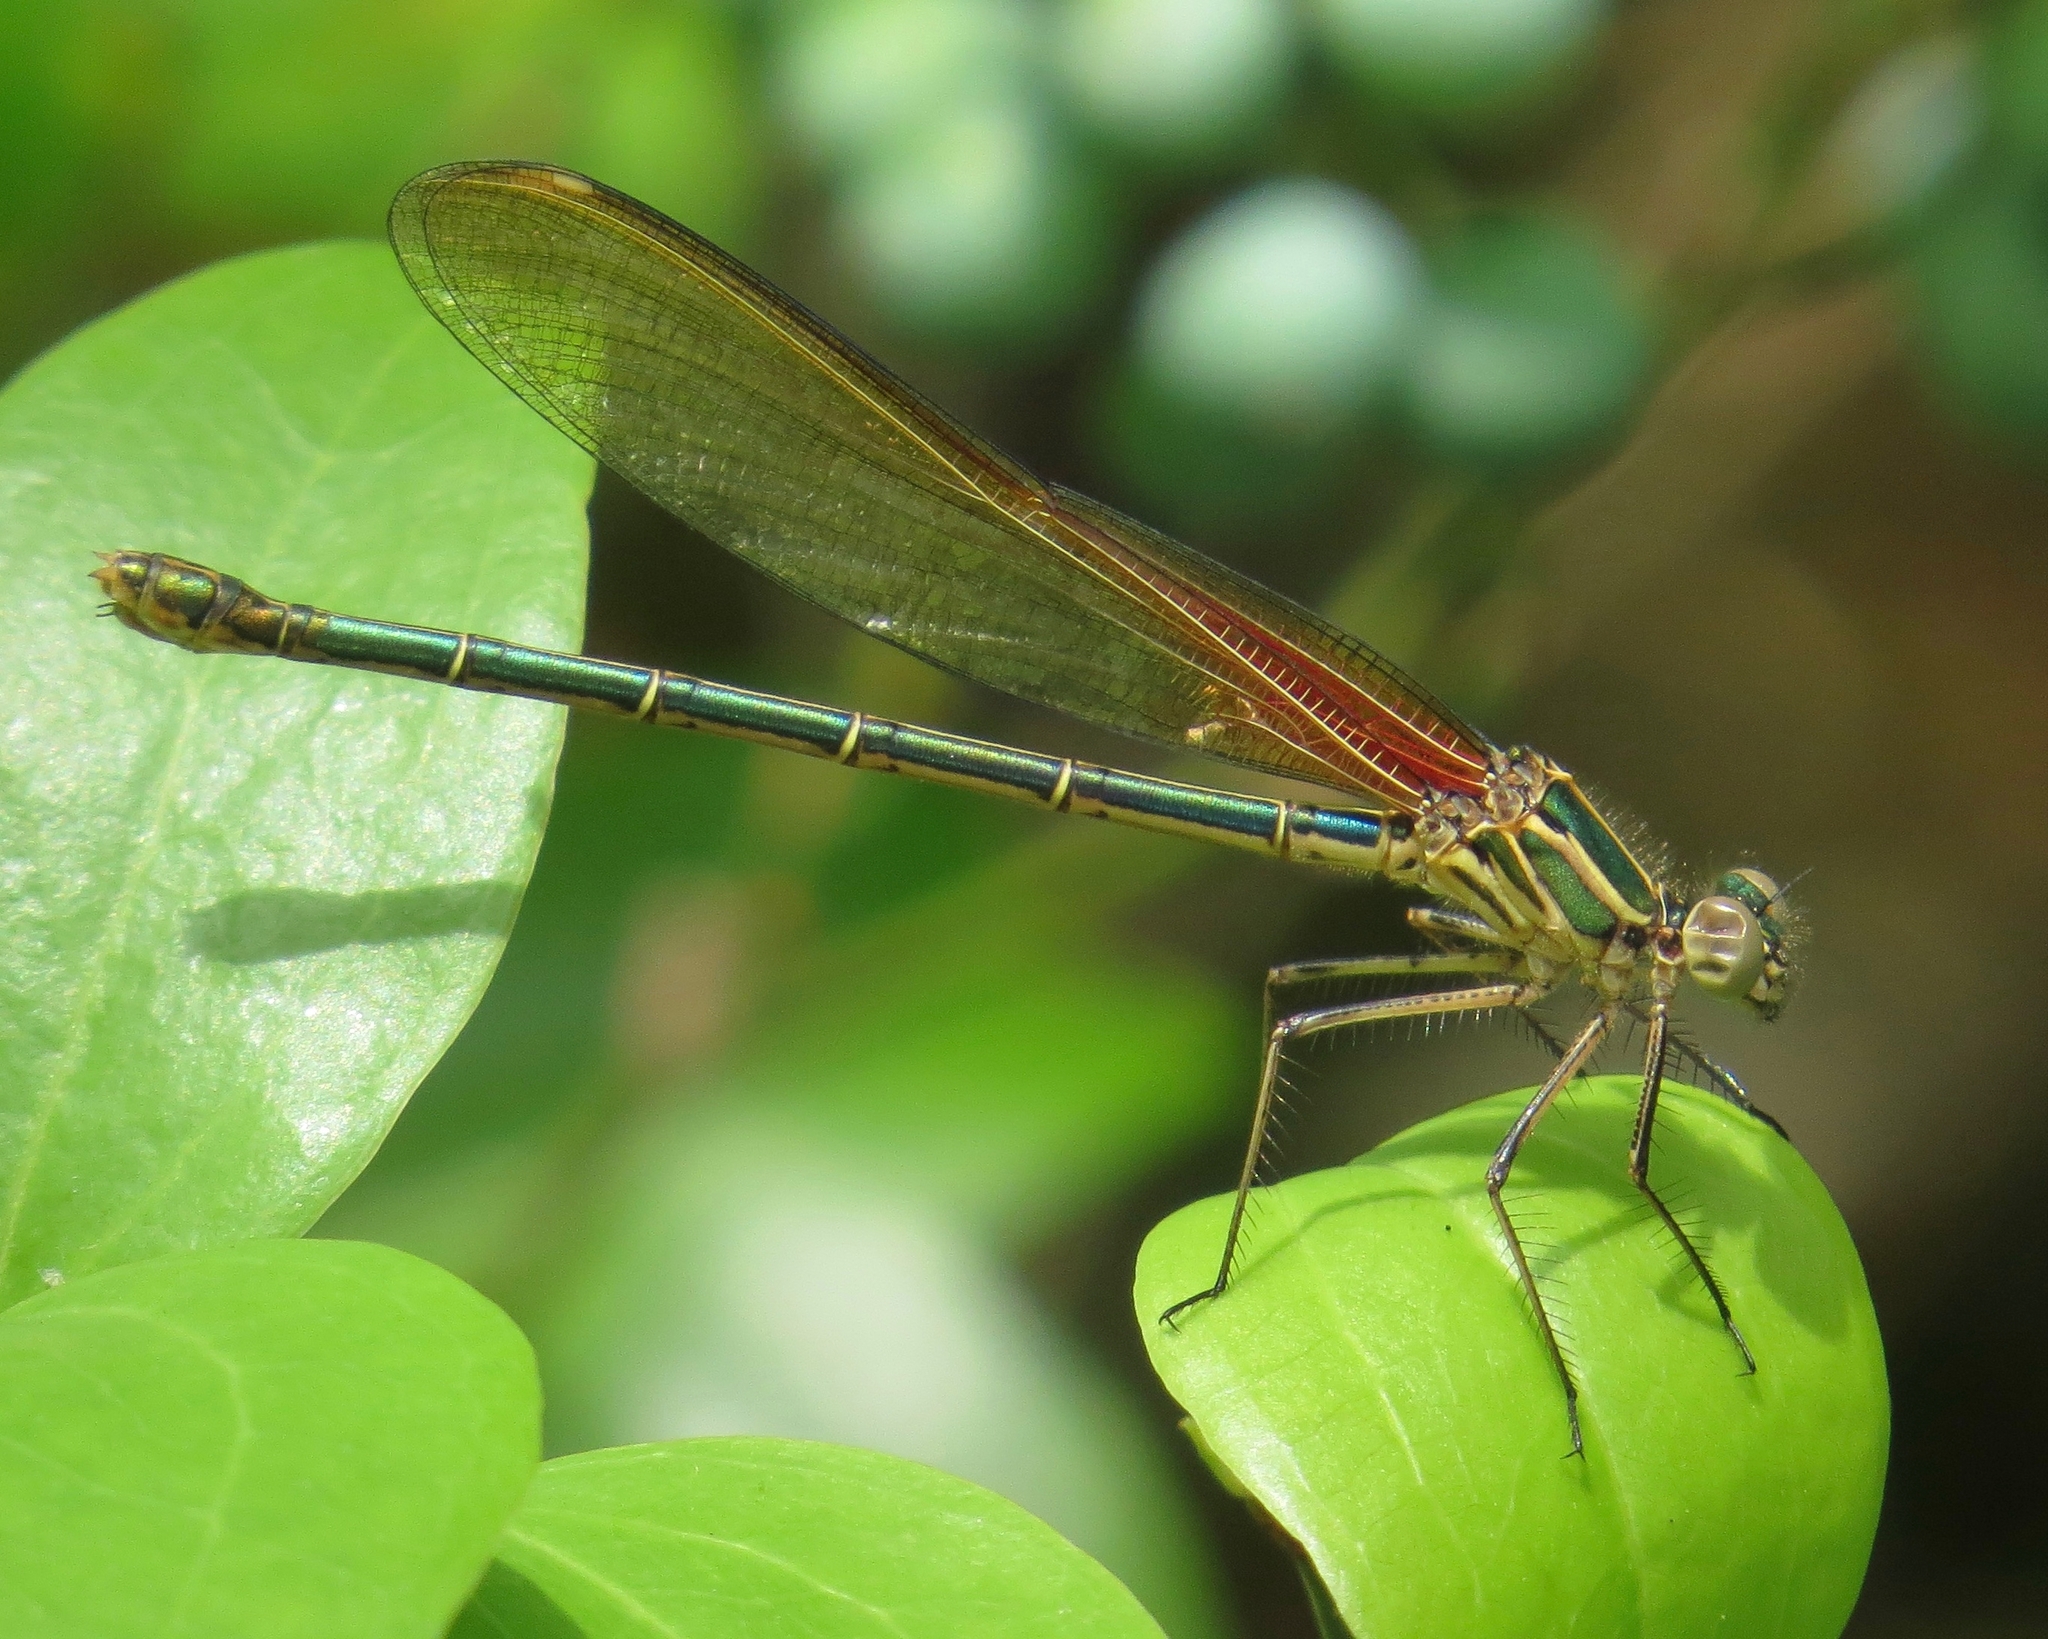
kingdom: Animalia
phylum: Arthropoda
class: Insecta
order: Odonata
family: Calopterygidae
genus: Hetaerina
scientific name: Hetaerina americana
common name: American rubyspot
